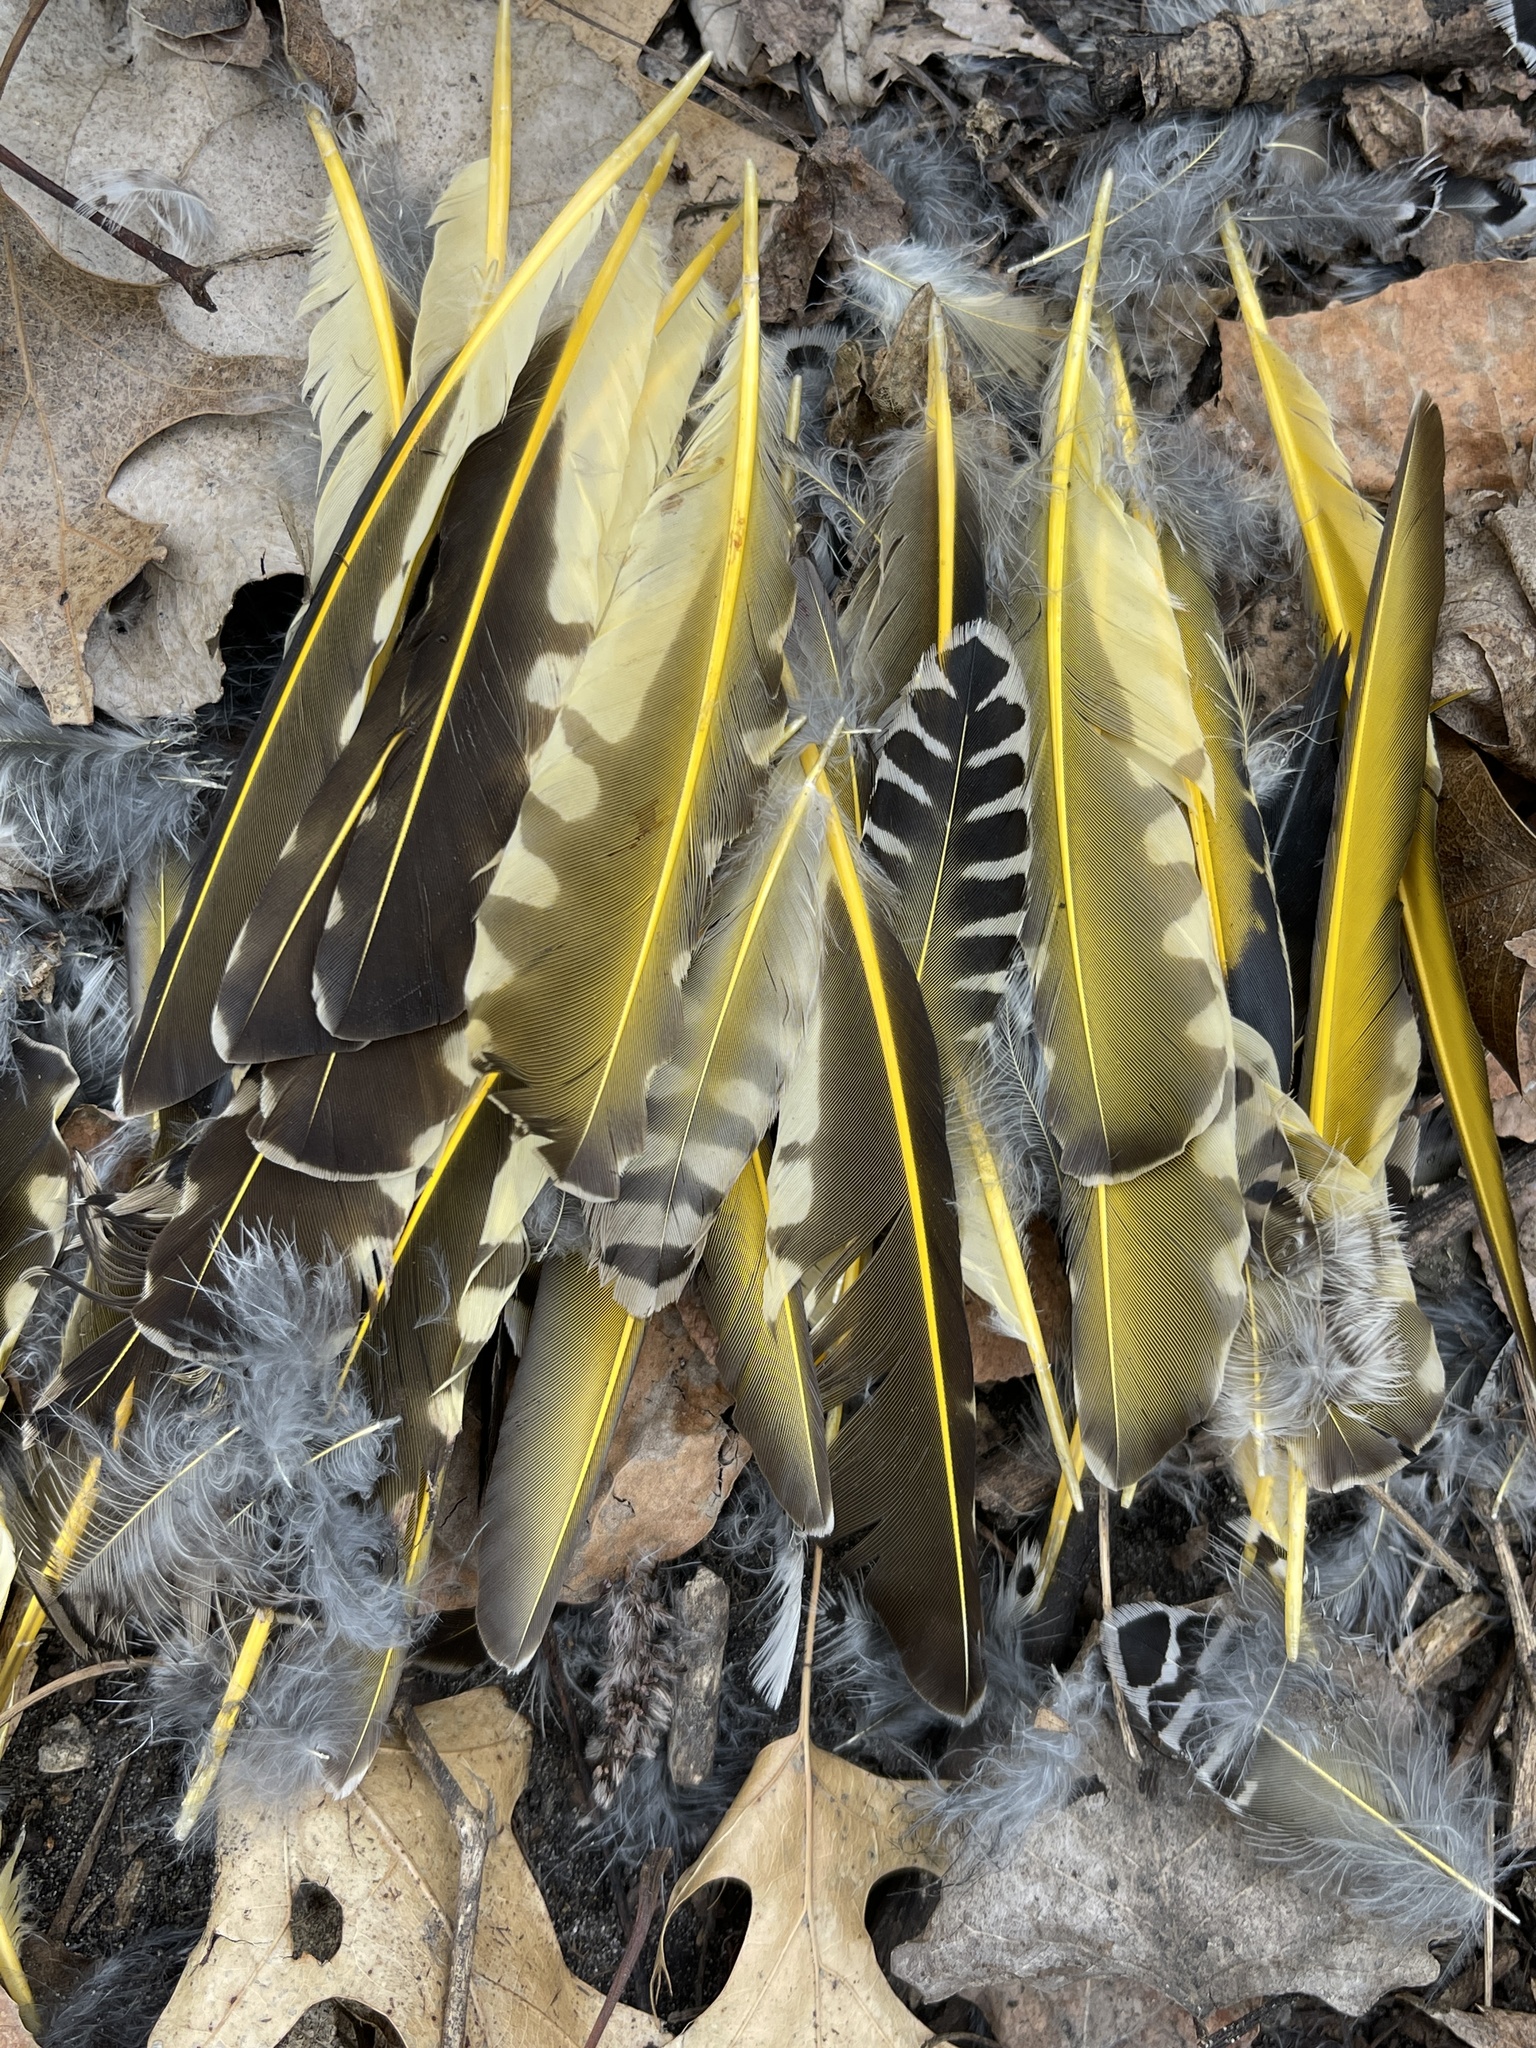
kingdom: Animalia
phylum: Chordata
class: Aves
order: Piciformes
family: Picidae
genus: Colaptes
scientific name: Colaptes auratus
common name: Northern flicker
